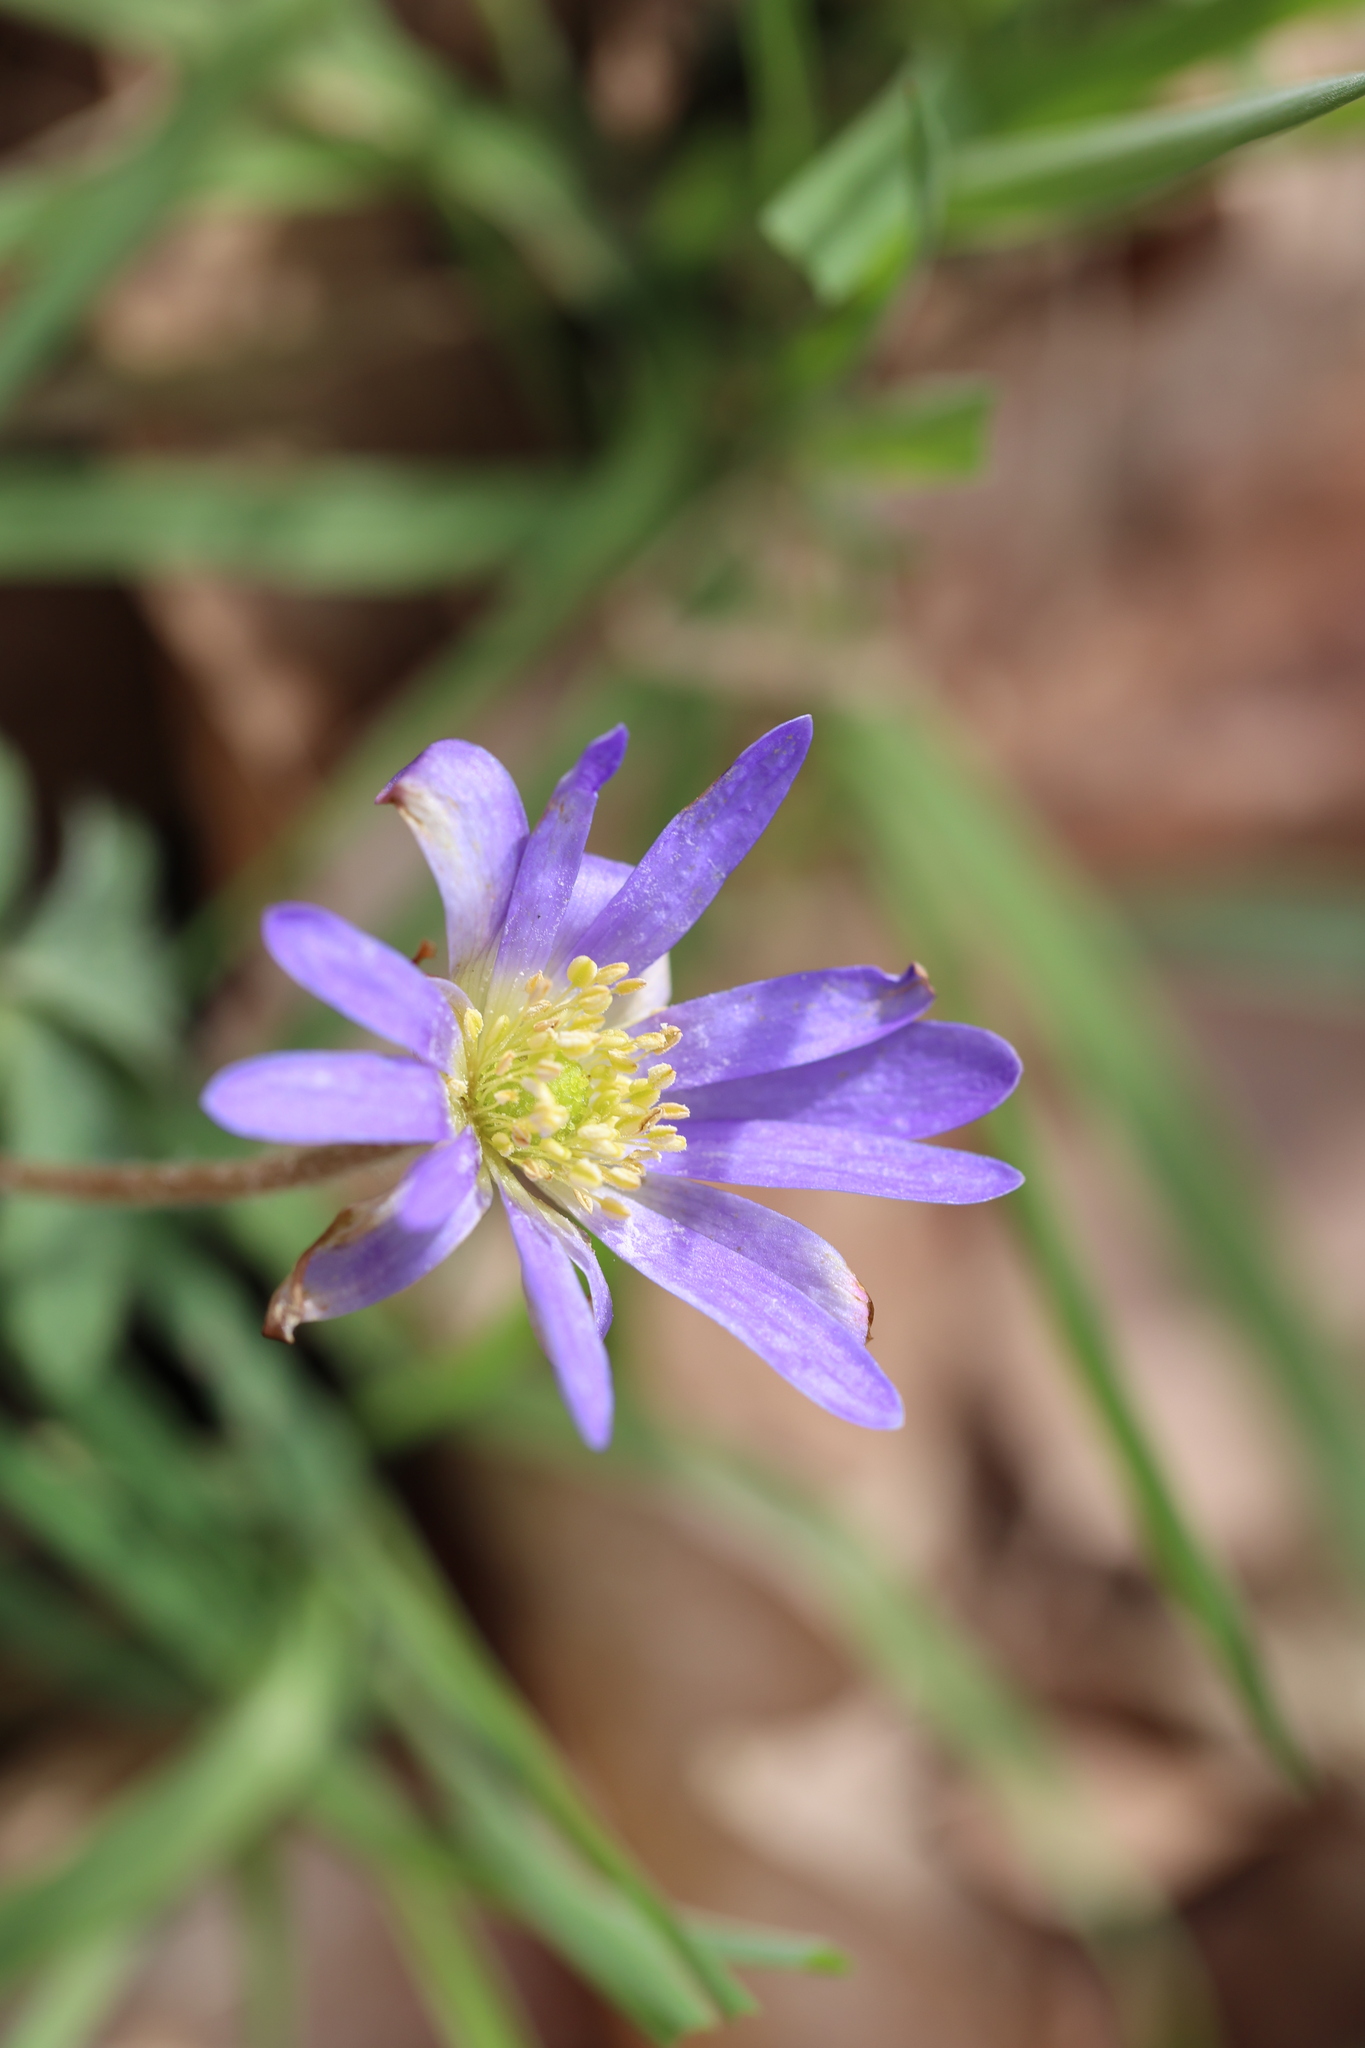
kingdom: Plantae
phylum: Tracheophyta
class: Magnoliopsida
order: Ranunculales
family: Ranunculaceae
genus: Anemone
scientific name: Anemone blanda
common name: Balkan anemone
